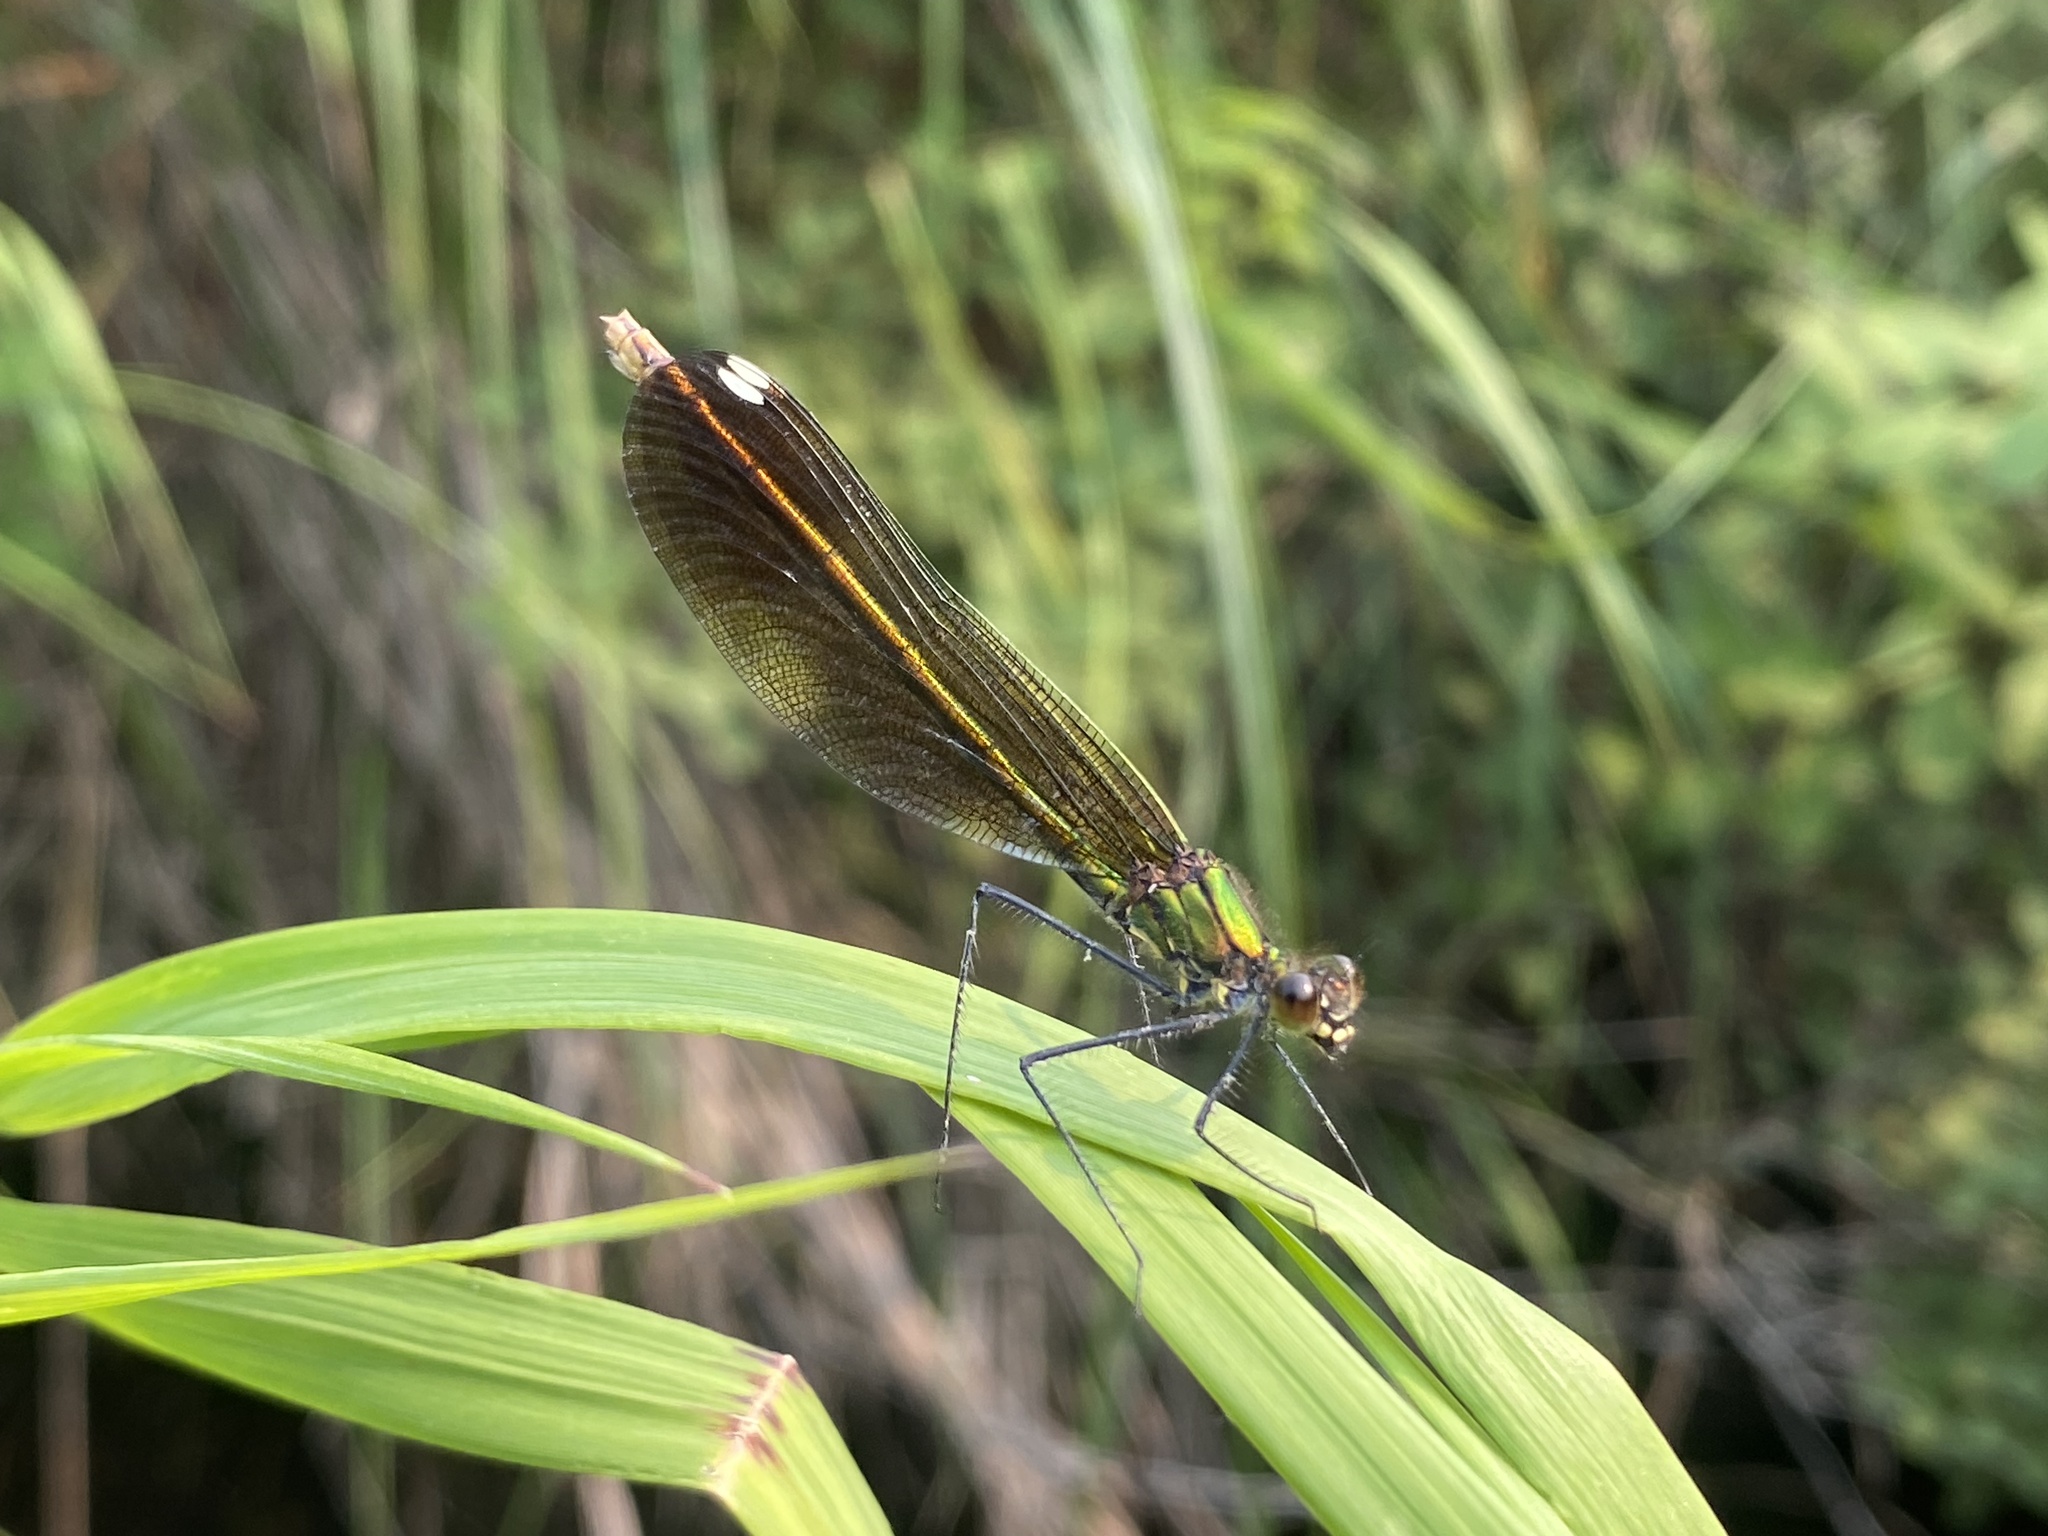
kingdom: Animalia
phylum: Arthropoda
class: Insecta
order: Odonata
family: Calopterygidae
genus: Calopteryx
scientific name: Calopteryx aequabilis
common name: River jewelwing
